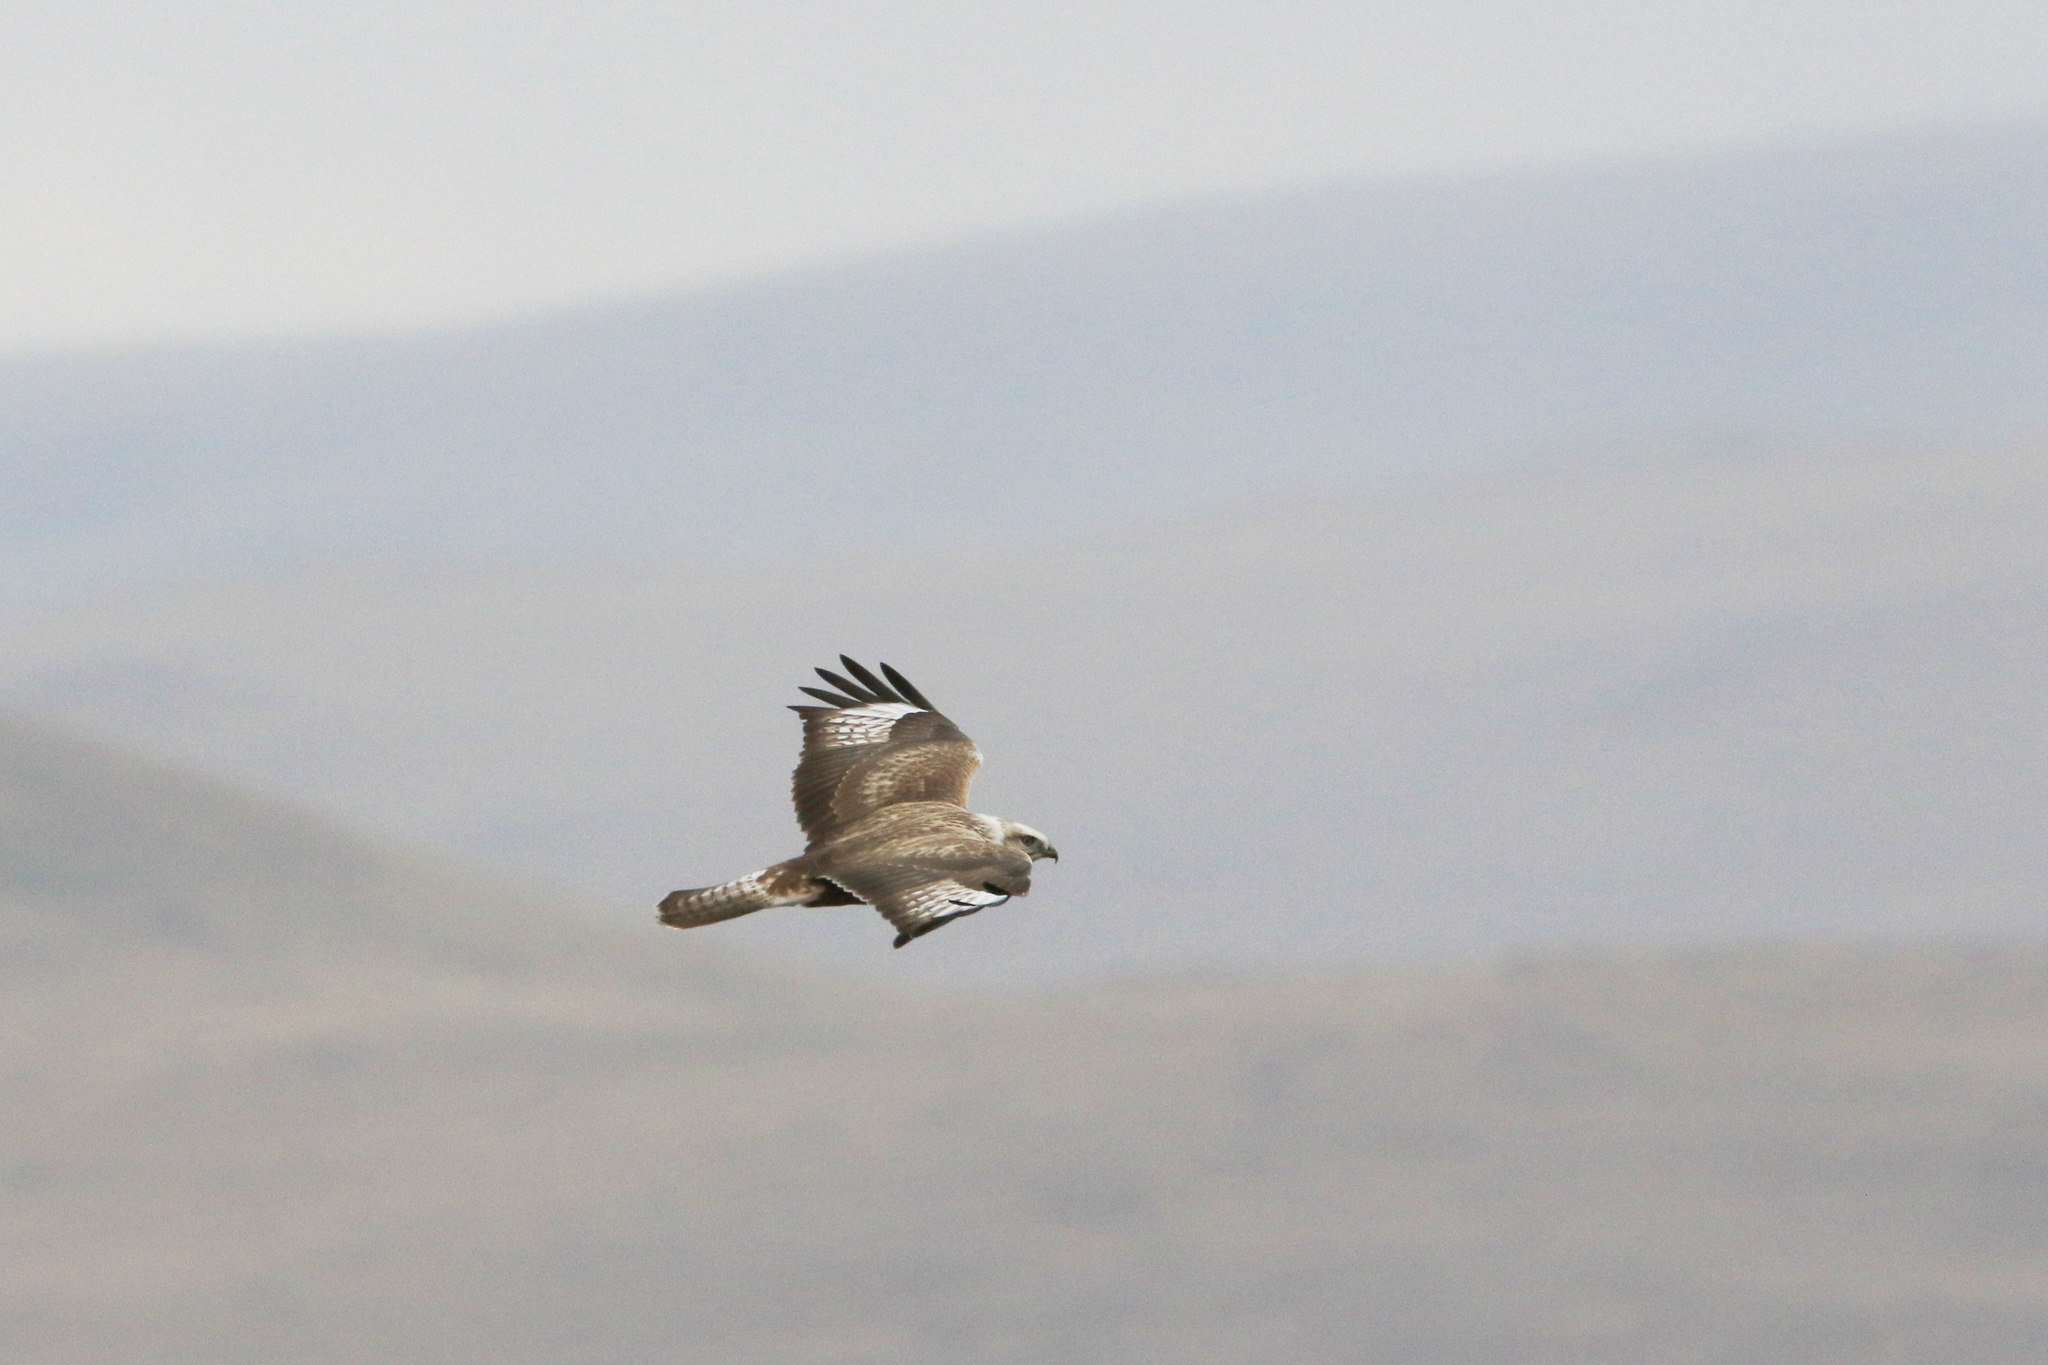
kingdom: Animalia
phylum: Chordata
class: Aves
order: Accipitriformes
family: Accipitridae
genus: Buteo
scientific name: Buteo hemilasius
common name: Upland buzzard
